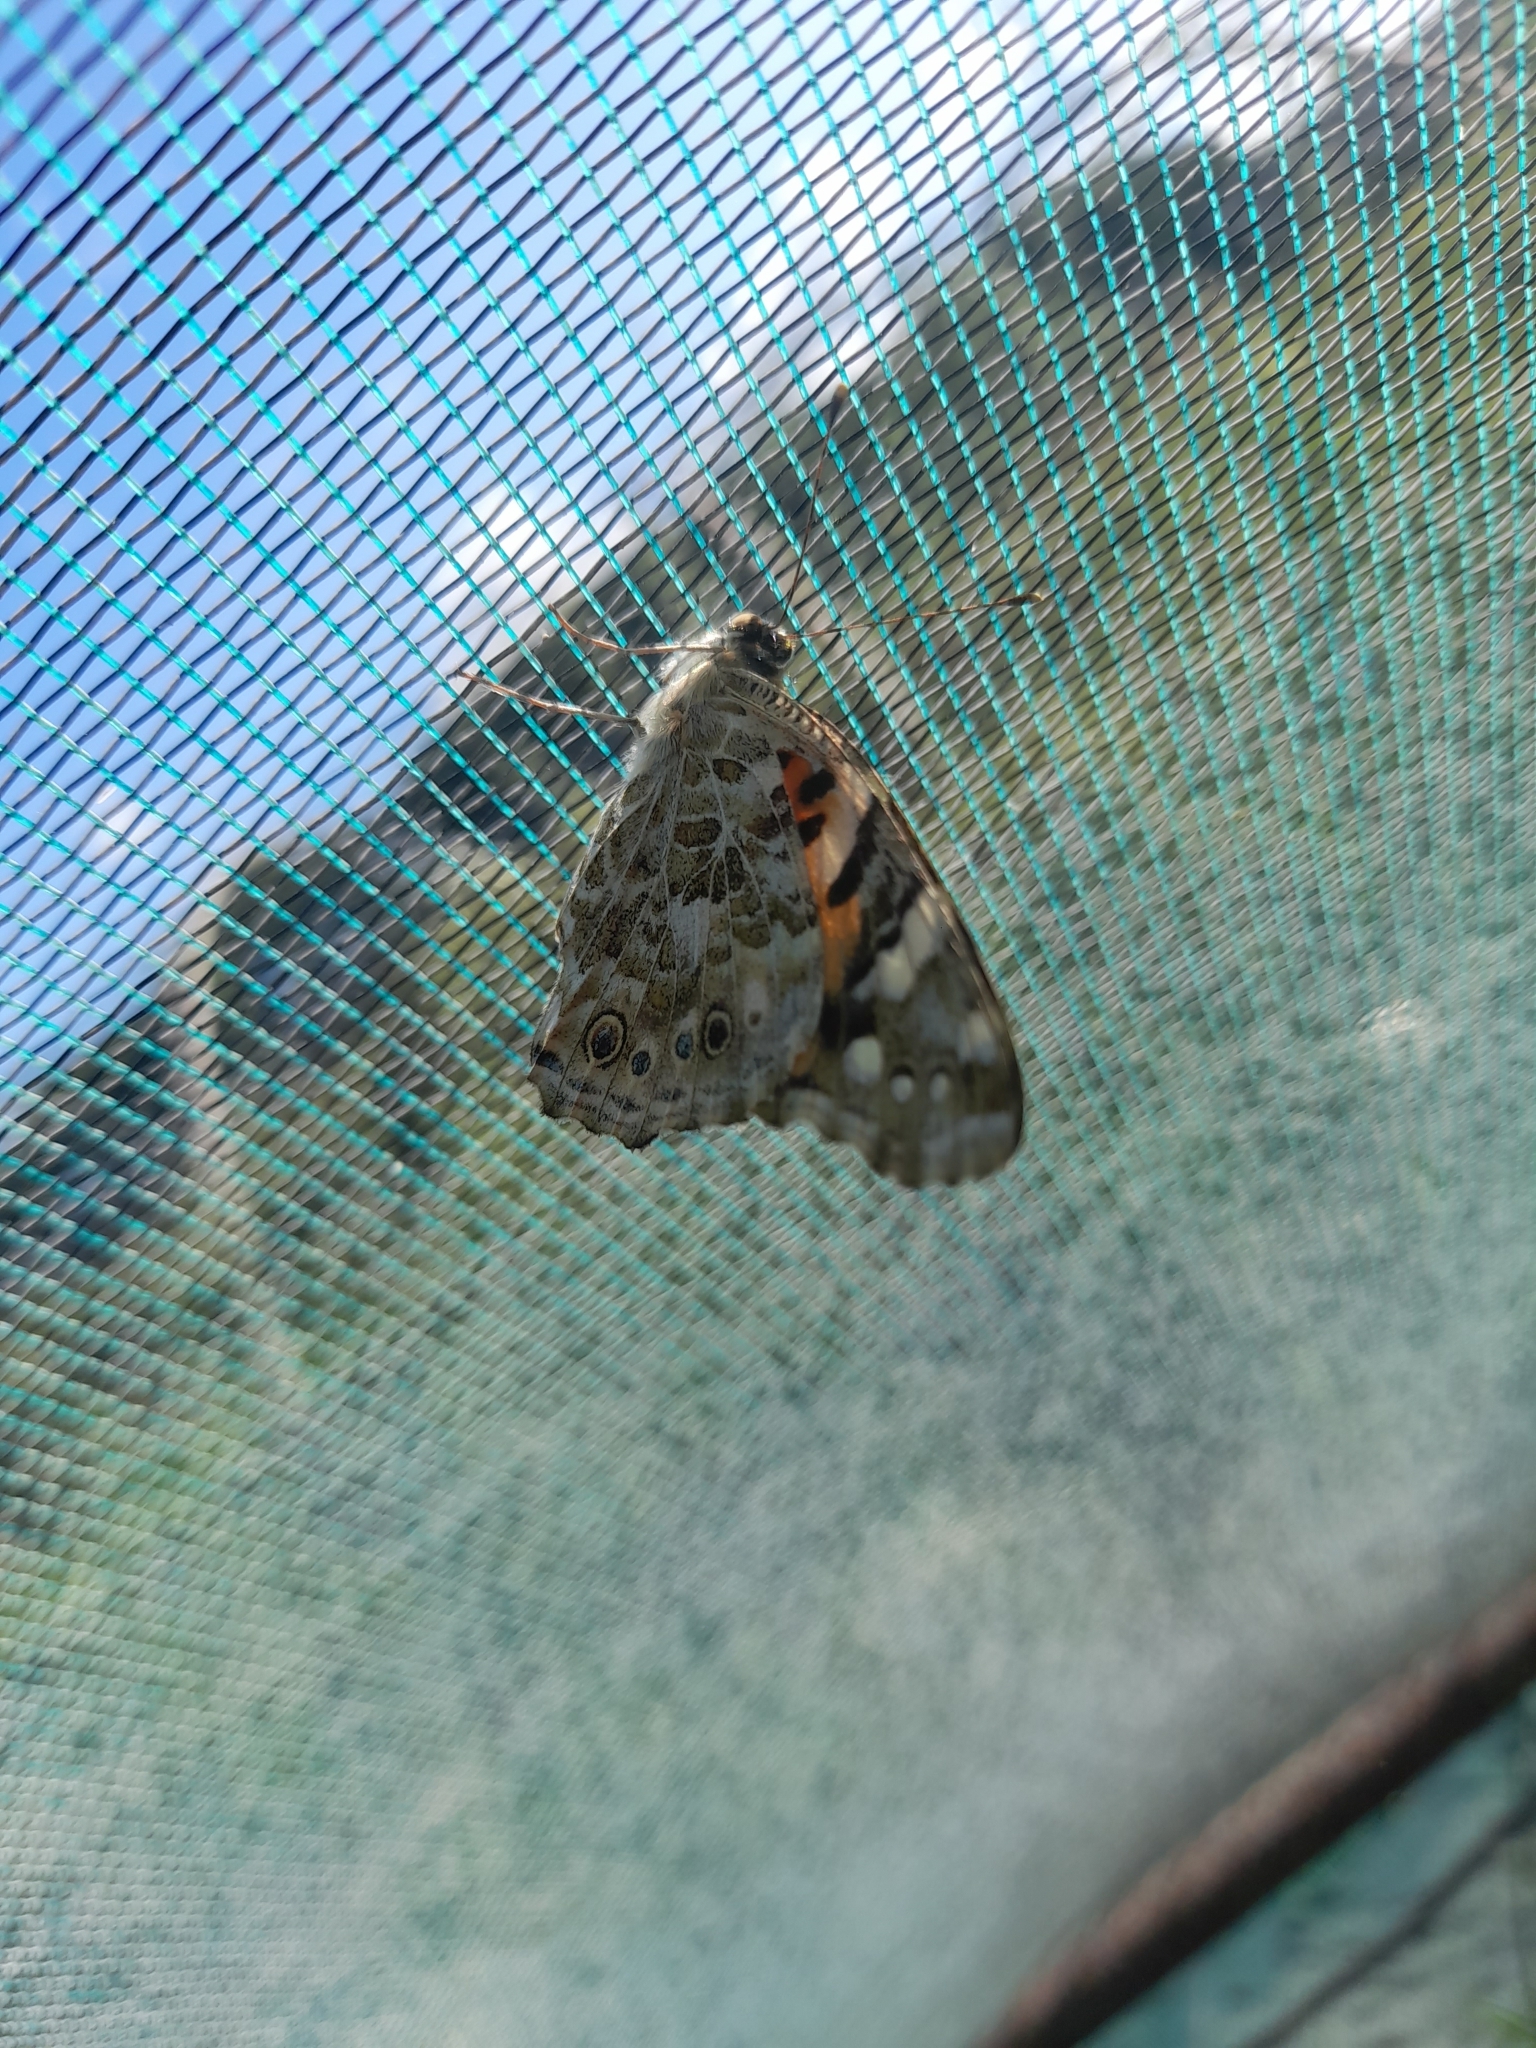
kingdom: Animalia
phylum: Arthropoda
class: Insecta
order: Lepidoptera
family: Nymphalidae
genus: Vanessa
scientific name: Vanessa cardui
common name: Painted lady
